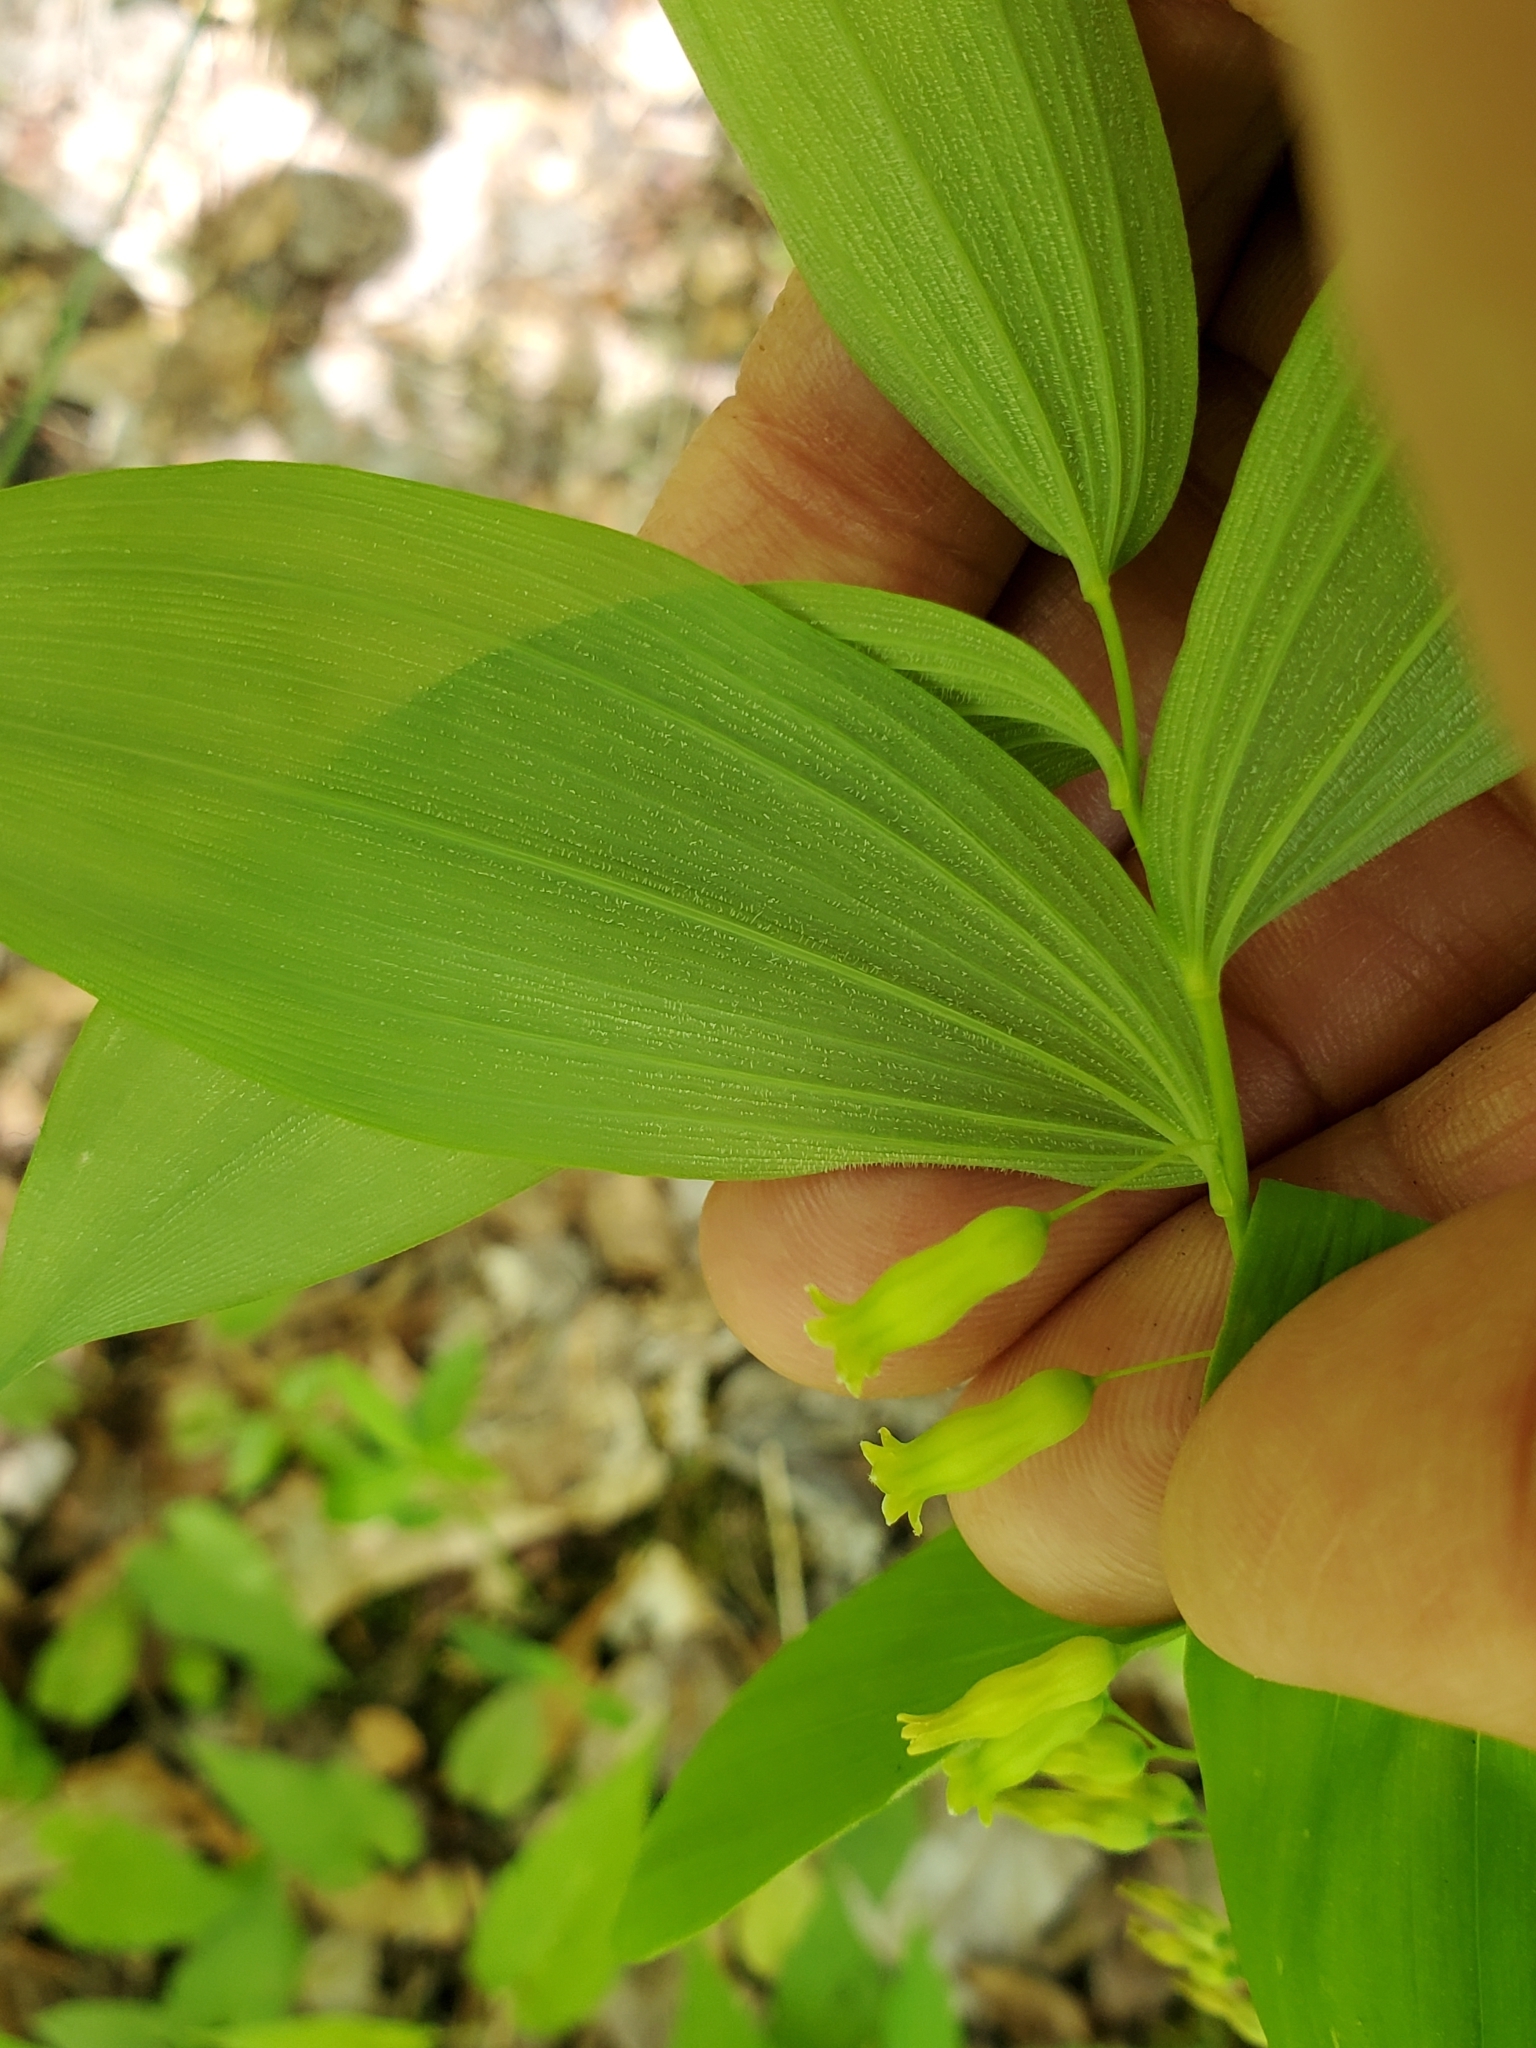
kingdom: Plantae
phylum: Tracheophyta
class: Liliopsida
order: Asparagales
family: Asparagaceae
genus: Polygonatum
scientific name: Polygonatum pubescens
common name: Downy solomon's seal
